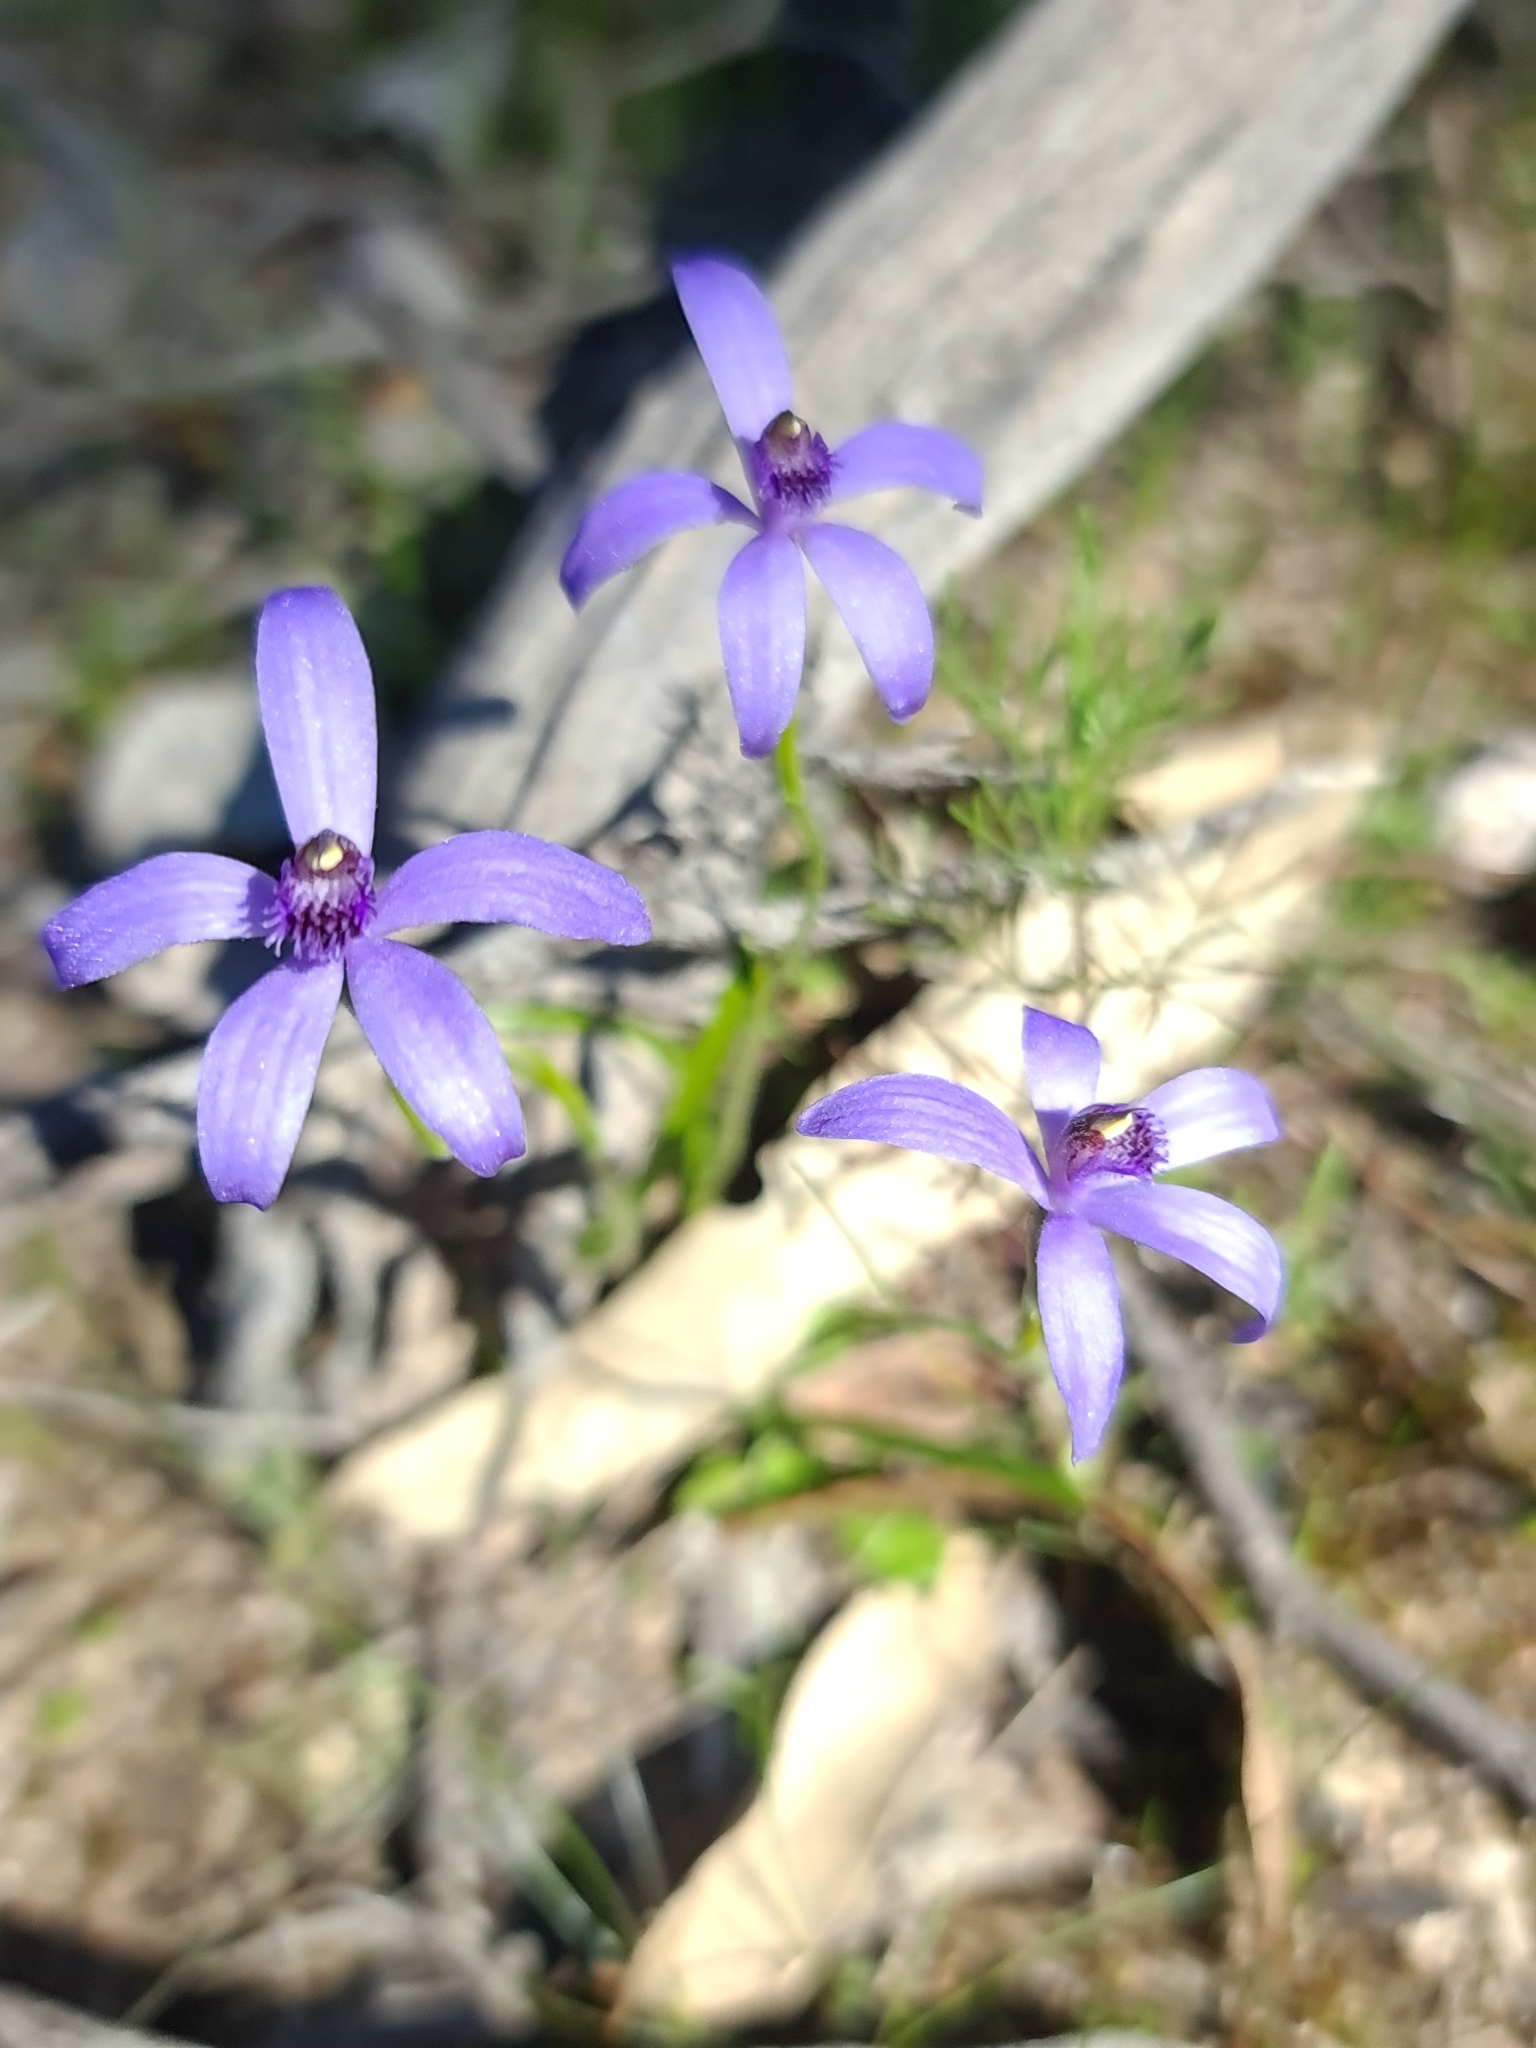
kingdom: Plantae
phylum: Tracheophyta
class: Liliopsida
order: Asparagales
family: Orchidaceae
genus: Pheladenia
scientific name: Pheladenia deformis
